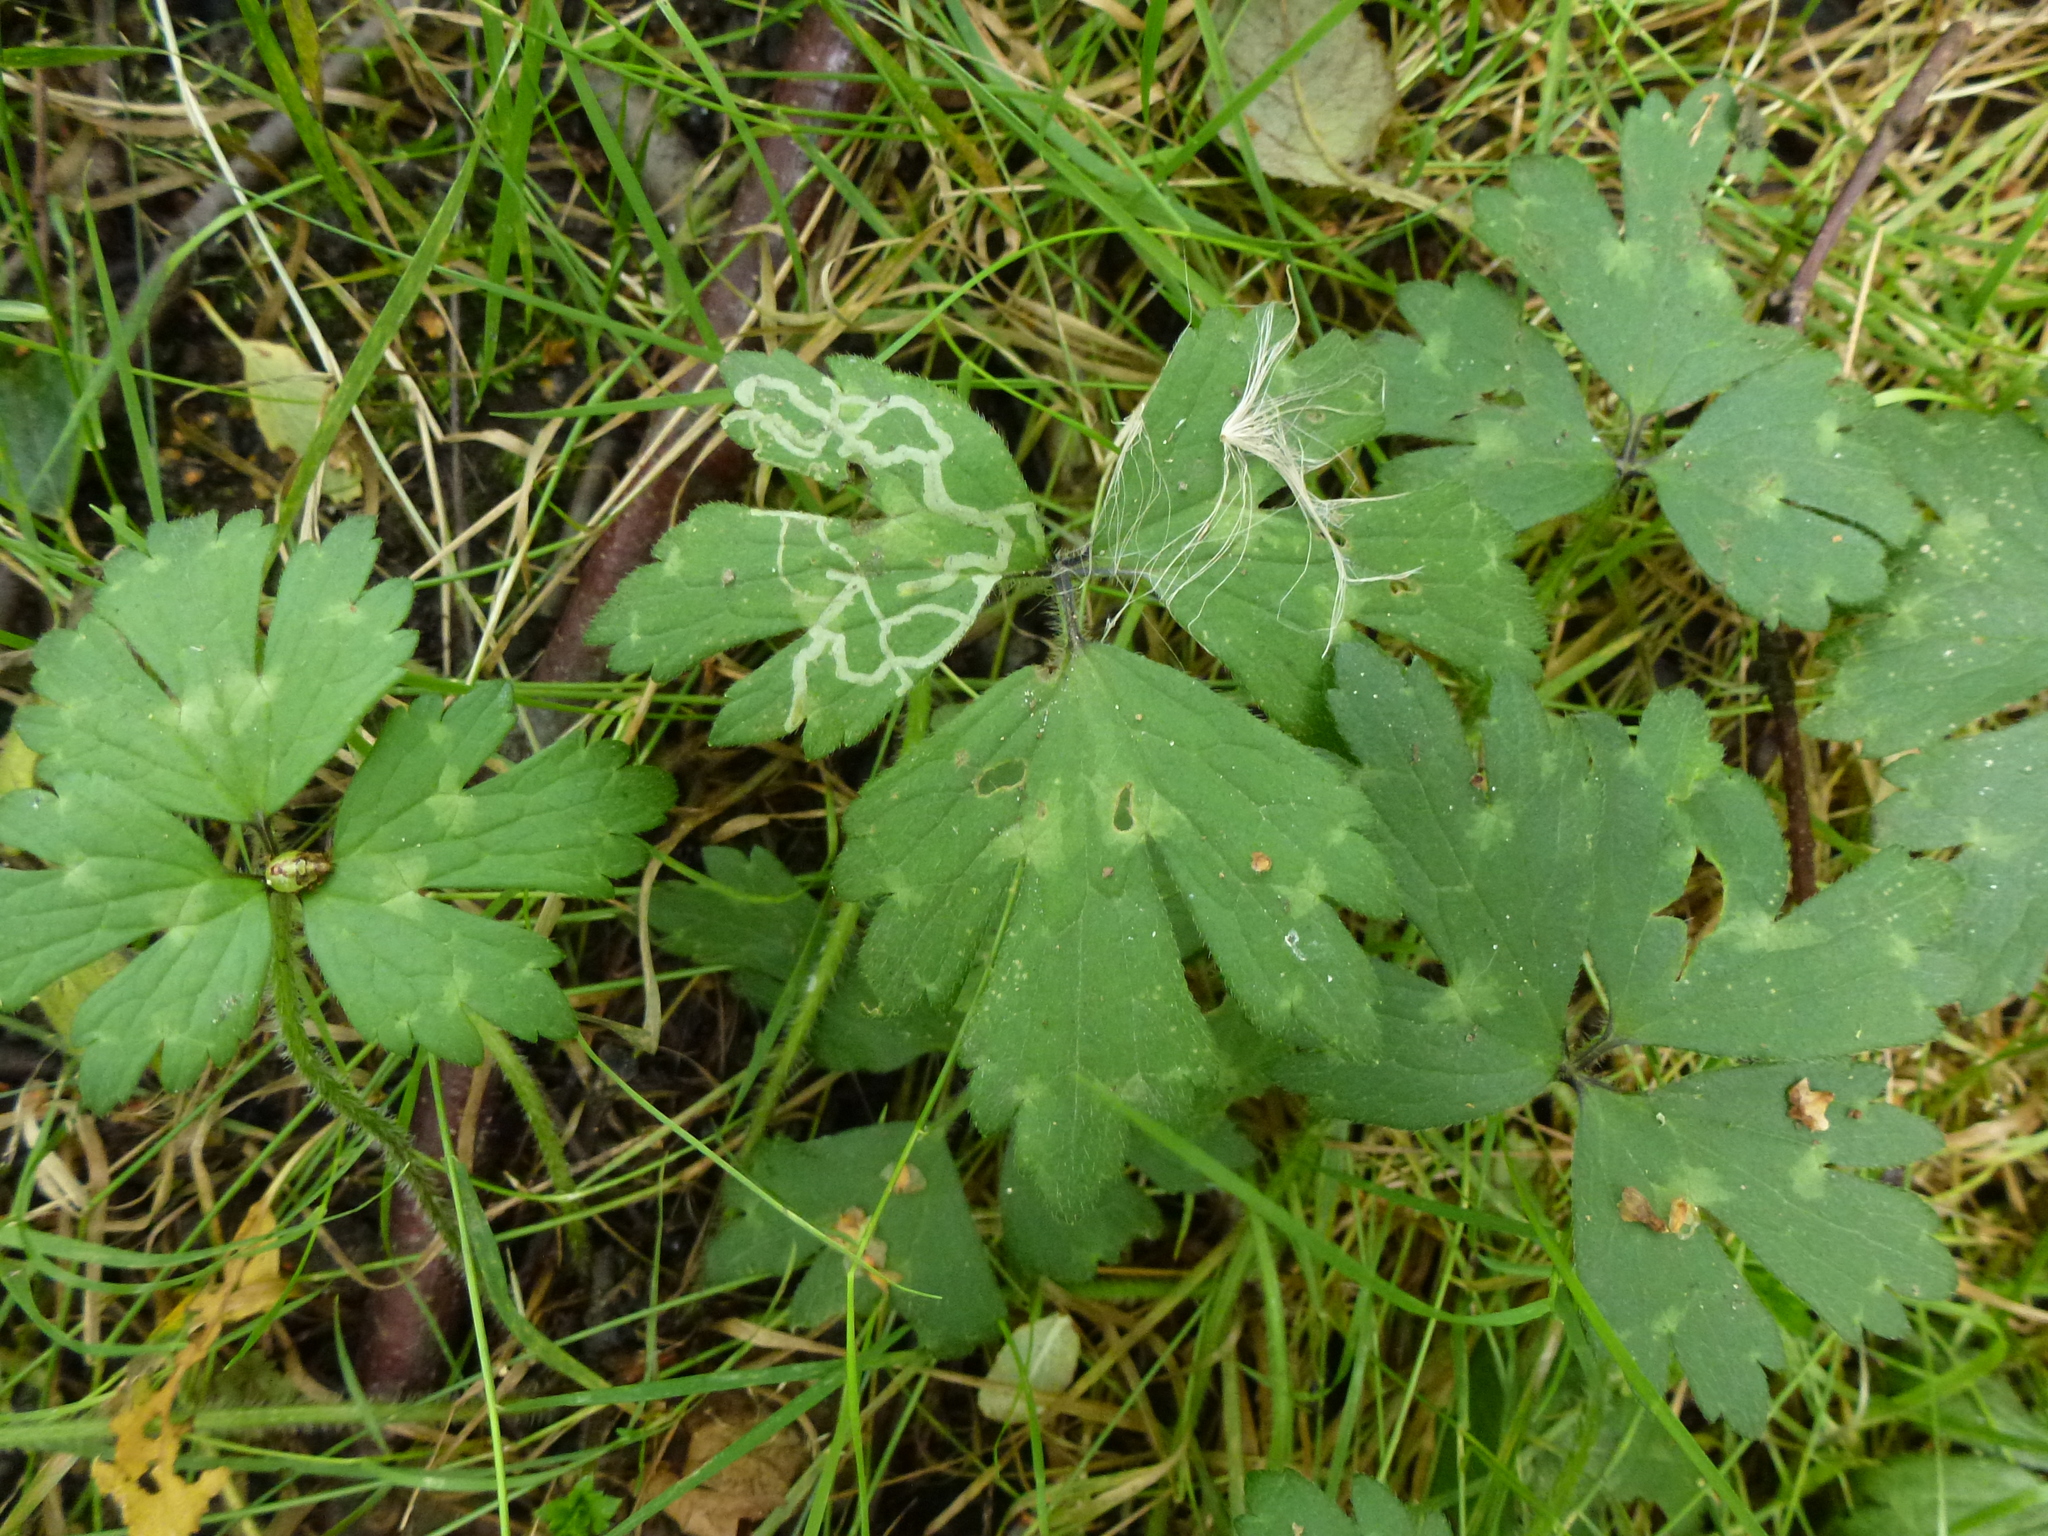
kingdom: Animalia
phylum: Arthropoda
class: Insecta
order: Diptera
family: Agromyzidae
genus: Phytomyza
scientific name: Phytomyza ranunculi
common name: Leaf-miner fly
